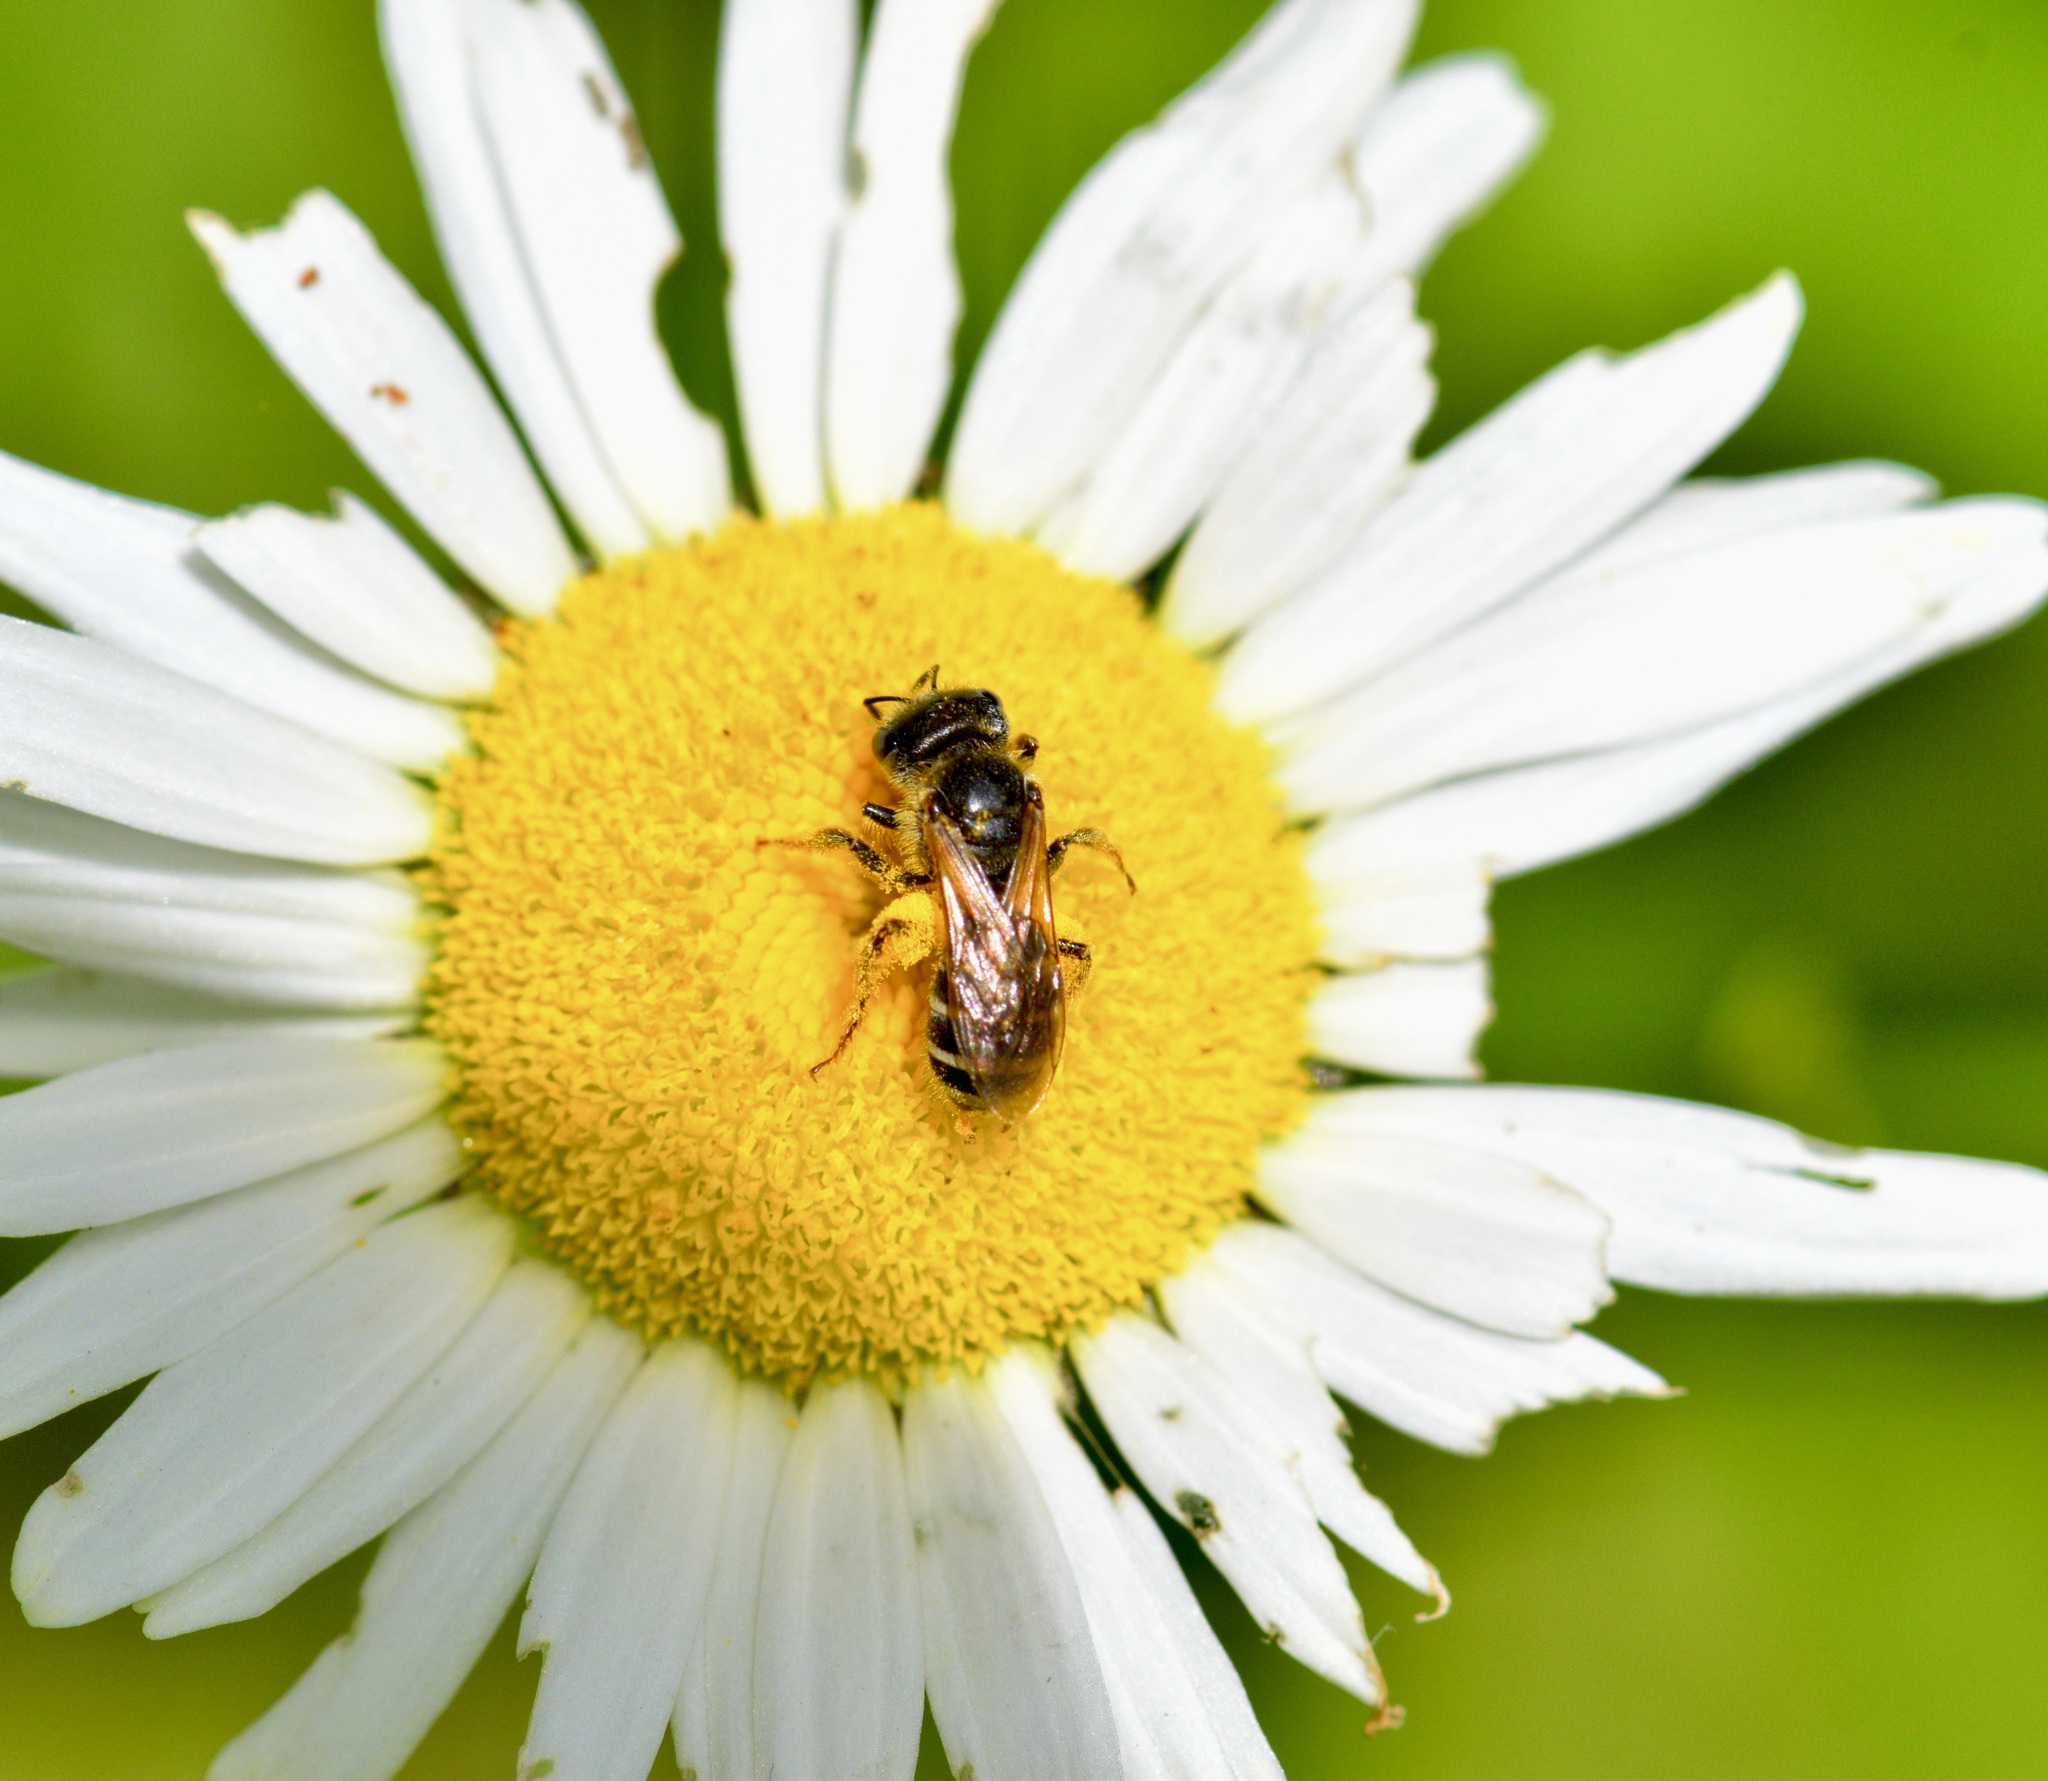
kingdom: Animalia
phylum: Arthropoda
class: Insecta
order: Hymenoptera
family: Halictidae
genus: Halictus
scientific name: Halictus ligatus
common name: Ligated furrow bee
